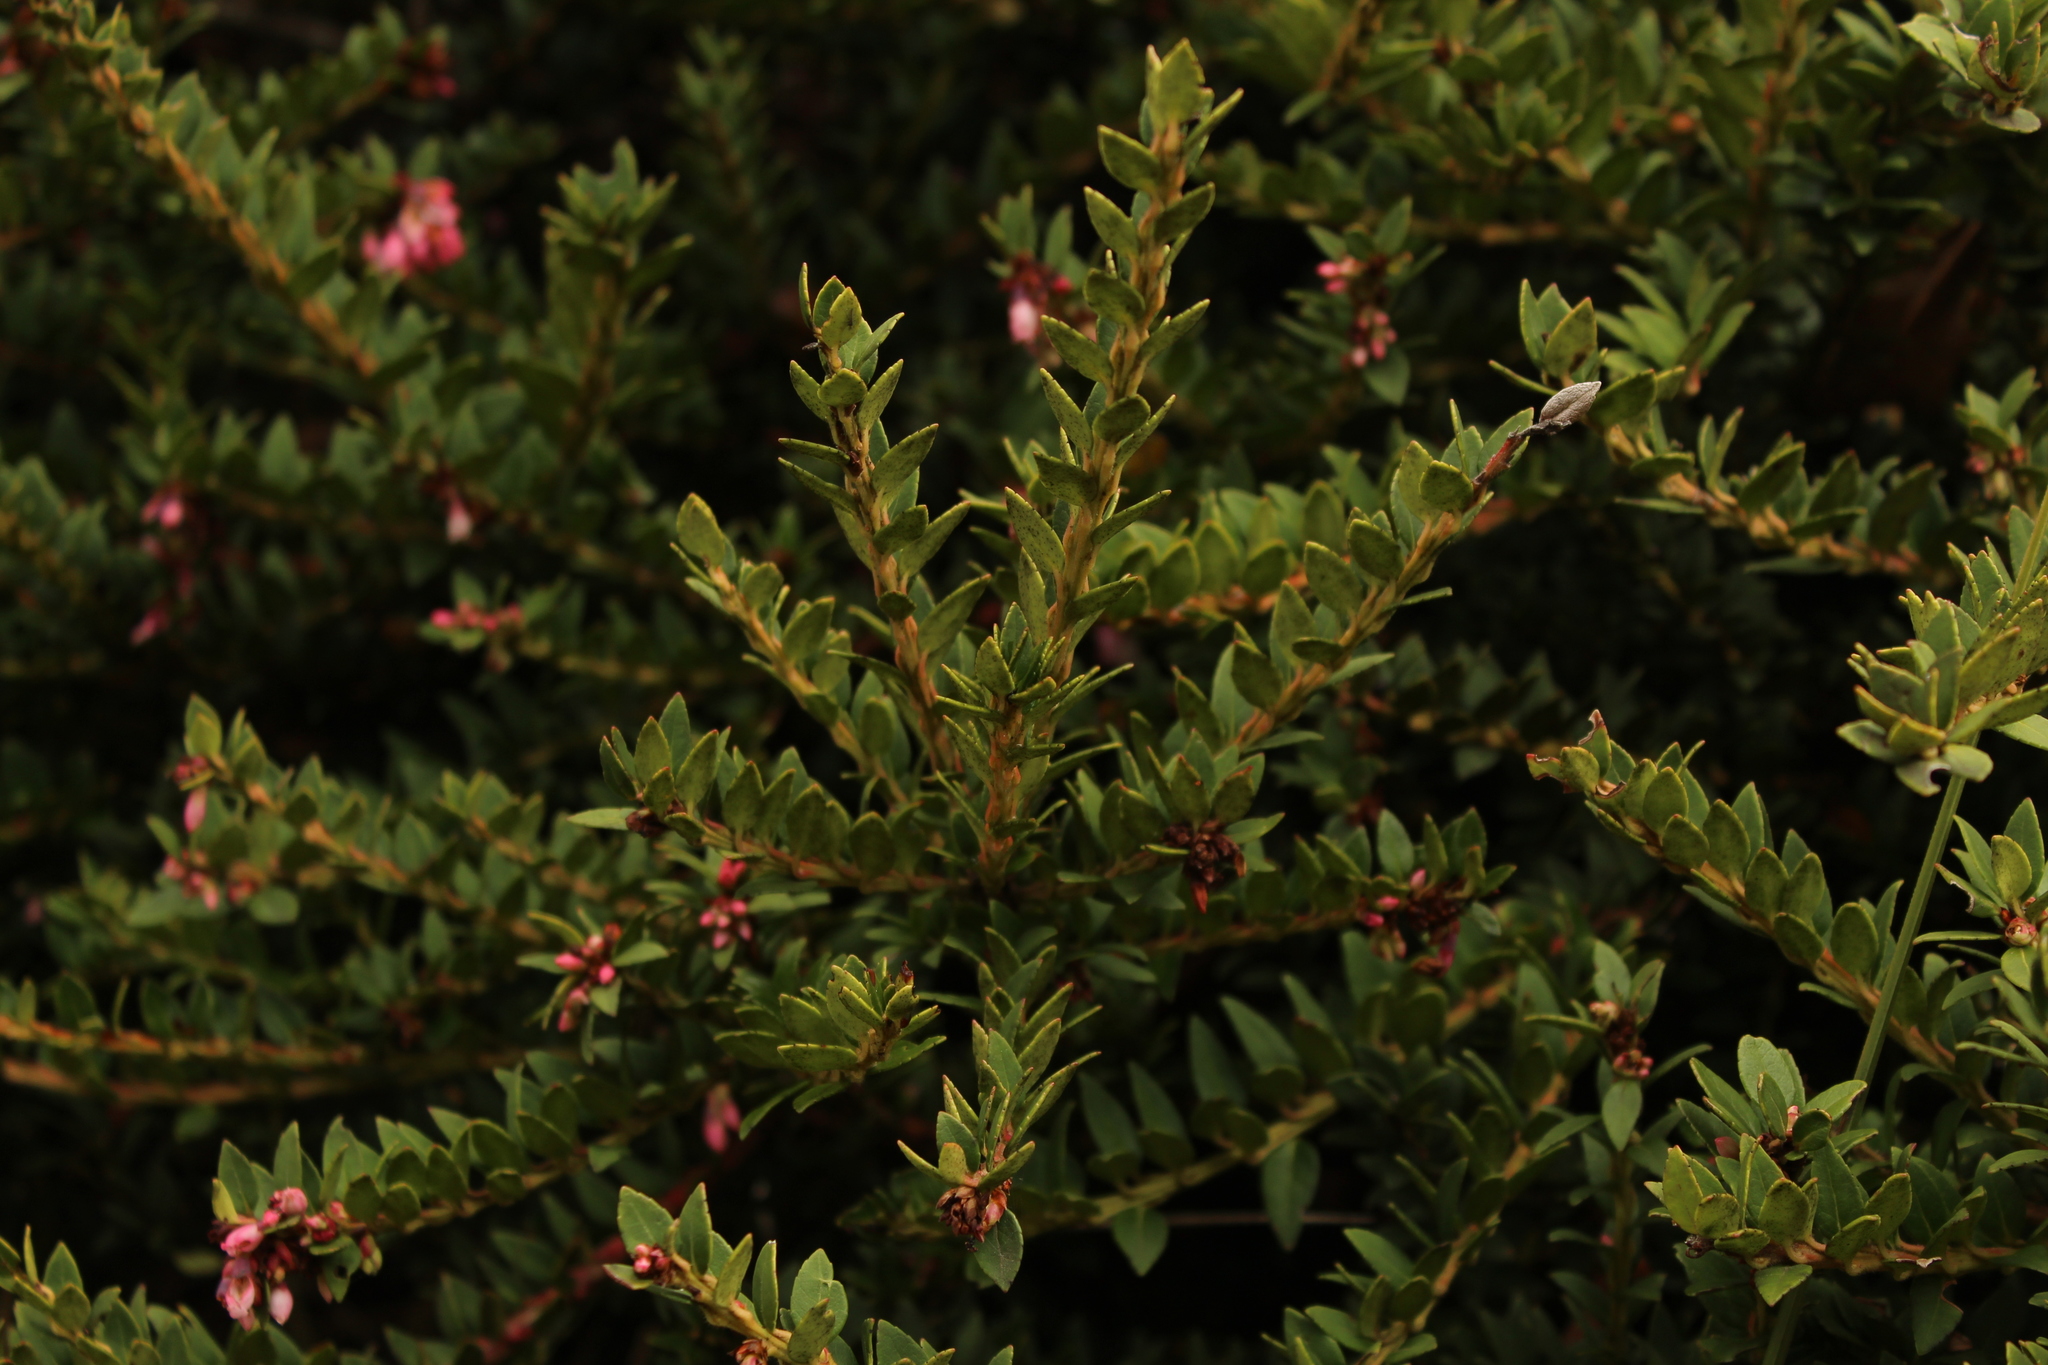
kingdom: Plantae
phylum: Tracheophyta
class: Magnoliopsida
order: Ericales
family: Ericaceae
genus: Vaccinium
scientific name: Vaccinium floribundum
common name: Colombian blueberry
